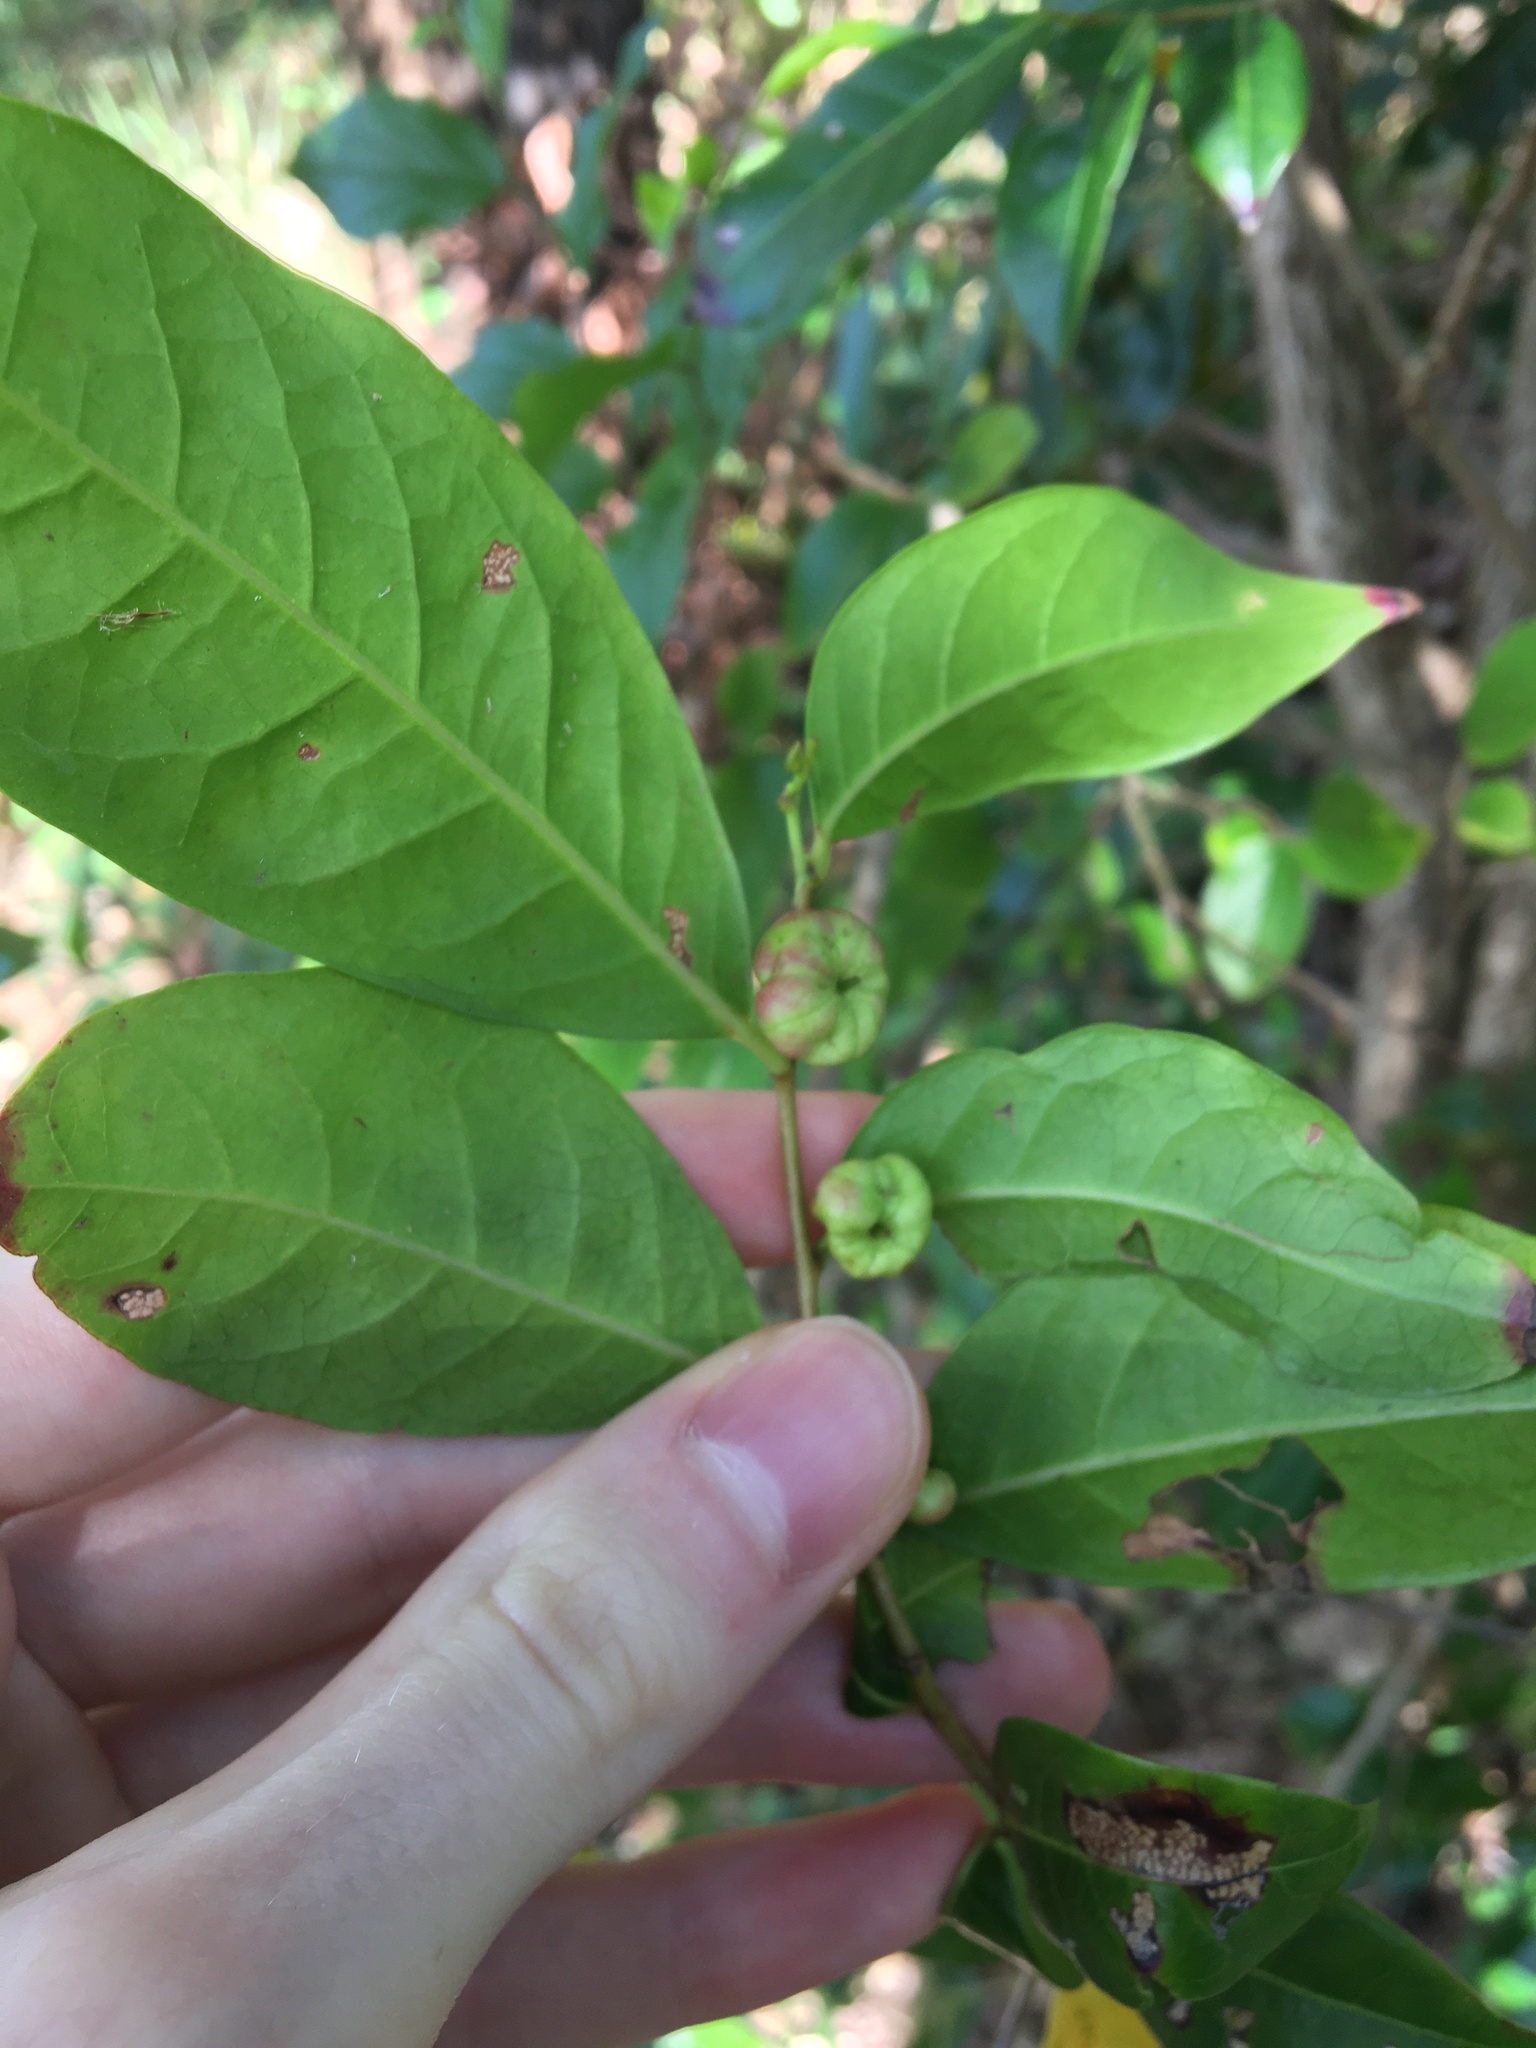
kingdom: Plantae
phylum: Tracheophyta
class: Magnoliopsida
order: Malpighiales
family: Phyllanthaceae
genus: Glochidion
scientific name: Glochidion ferdinandi
